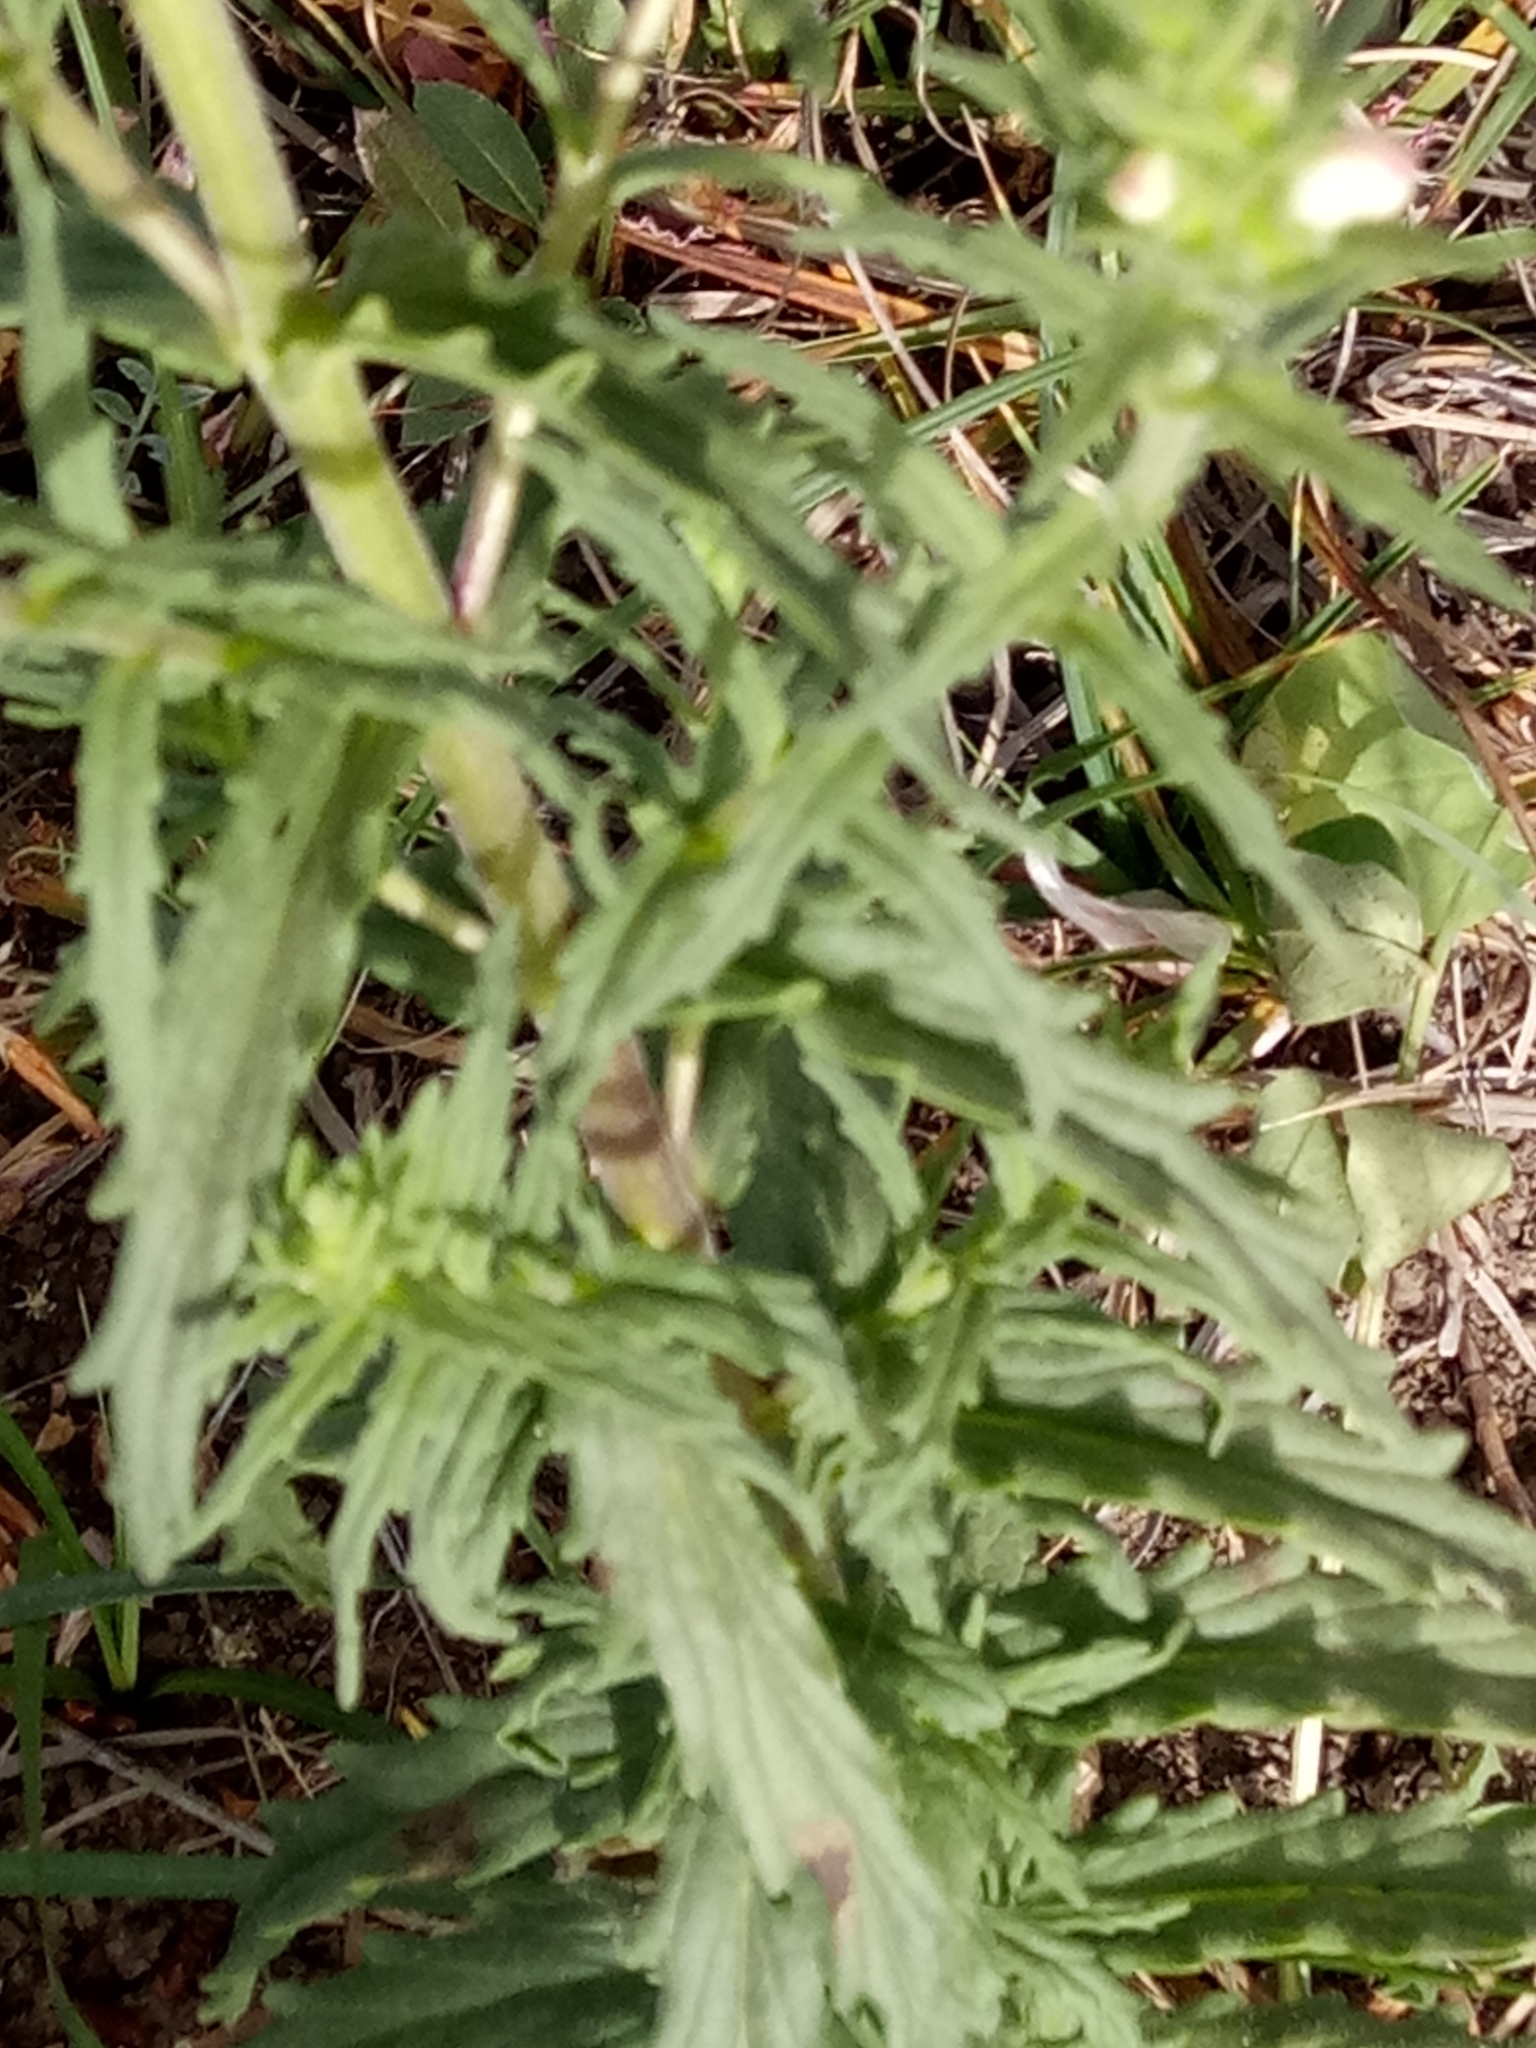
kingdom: Plantae
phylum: Tracheophyta
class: Magnoliopsida
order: Lamiales
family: Orobanchaceae
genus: Bellardia
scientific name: Bellardia trixago
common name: Mediterranean lineseed
